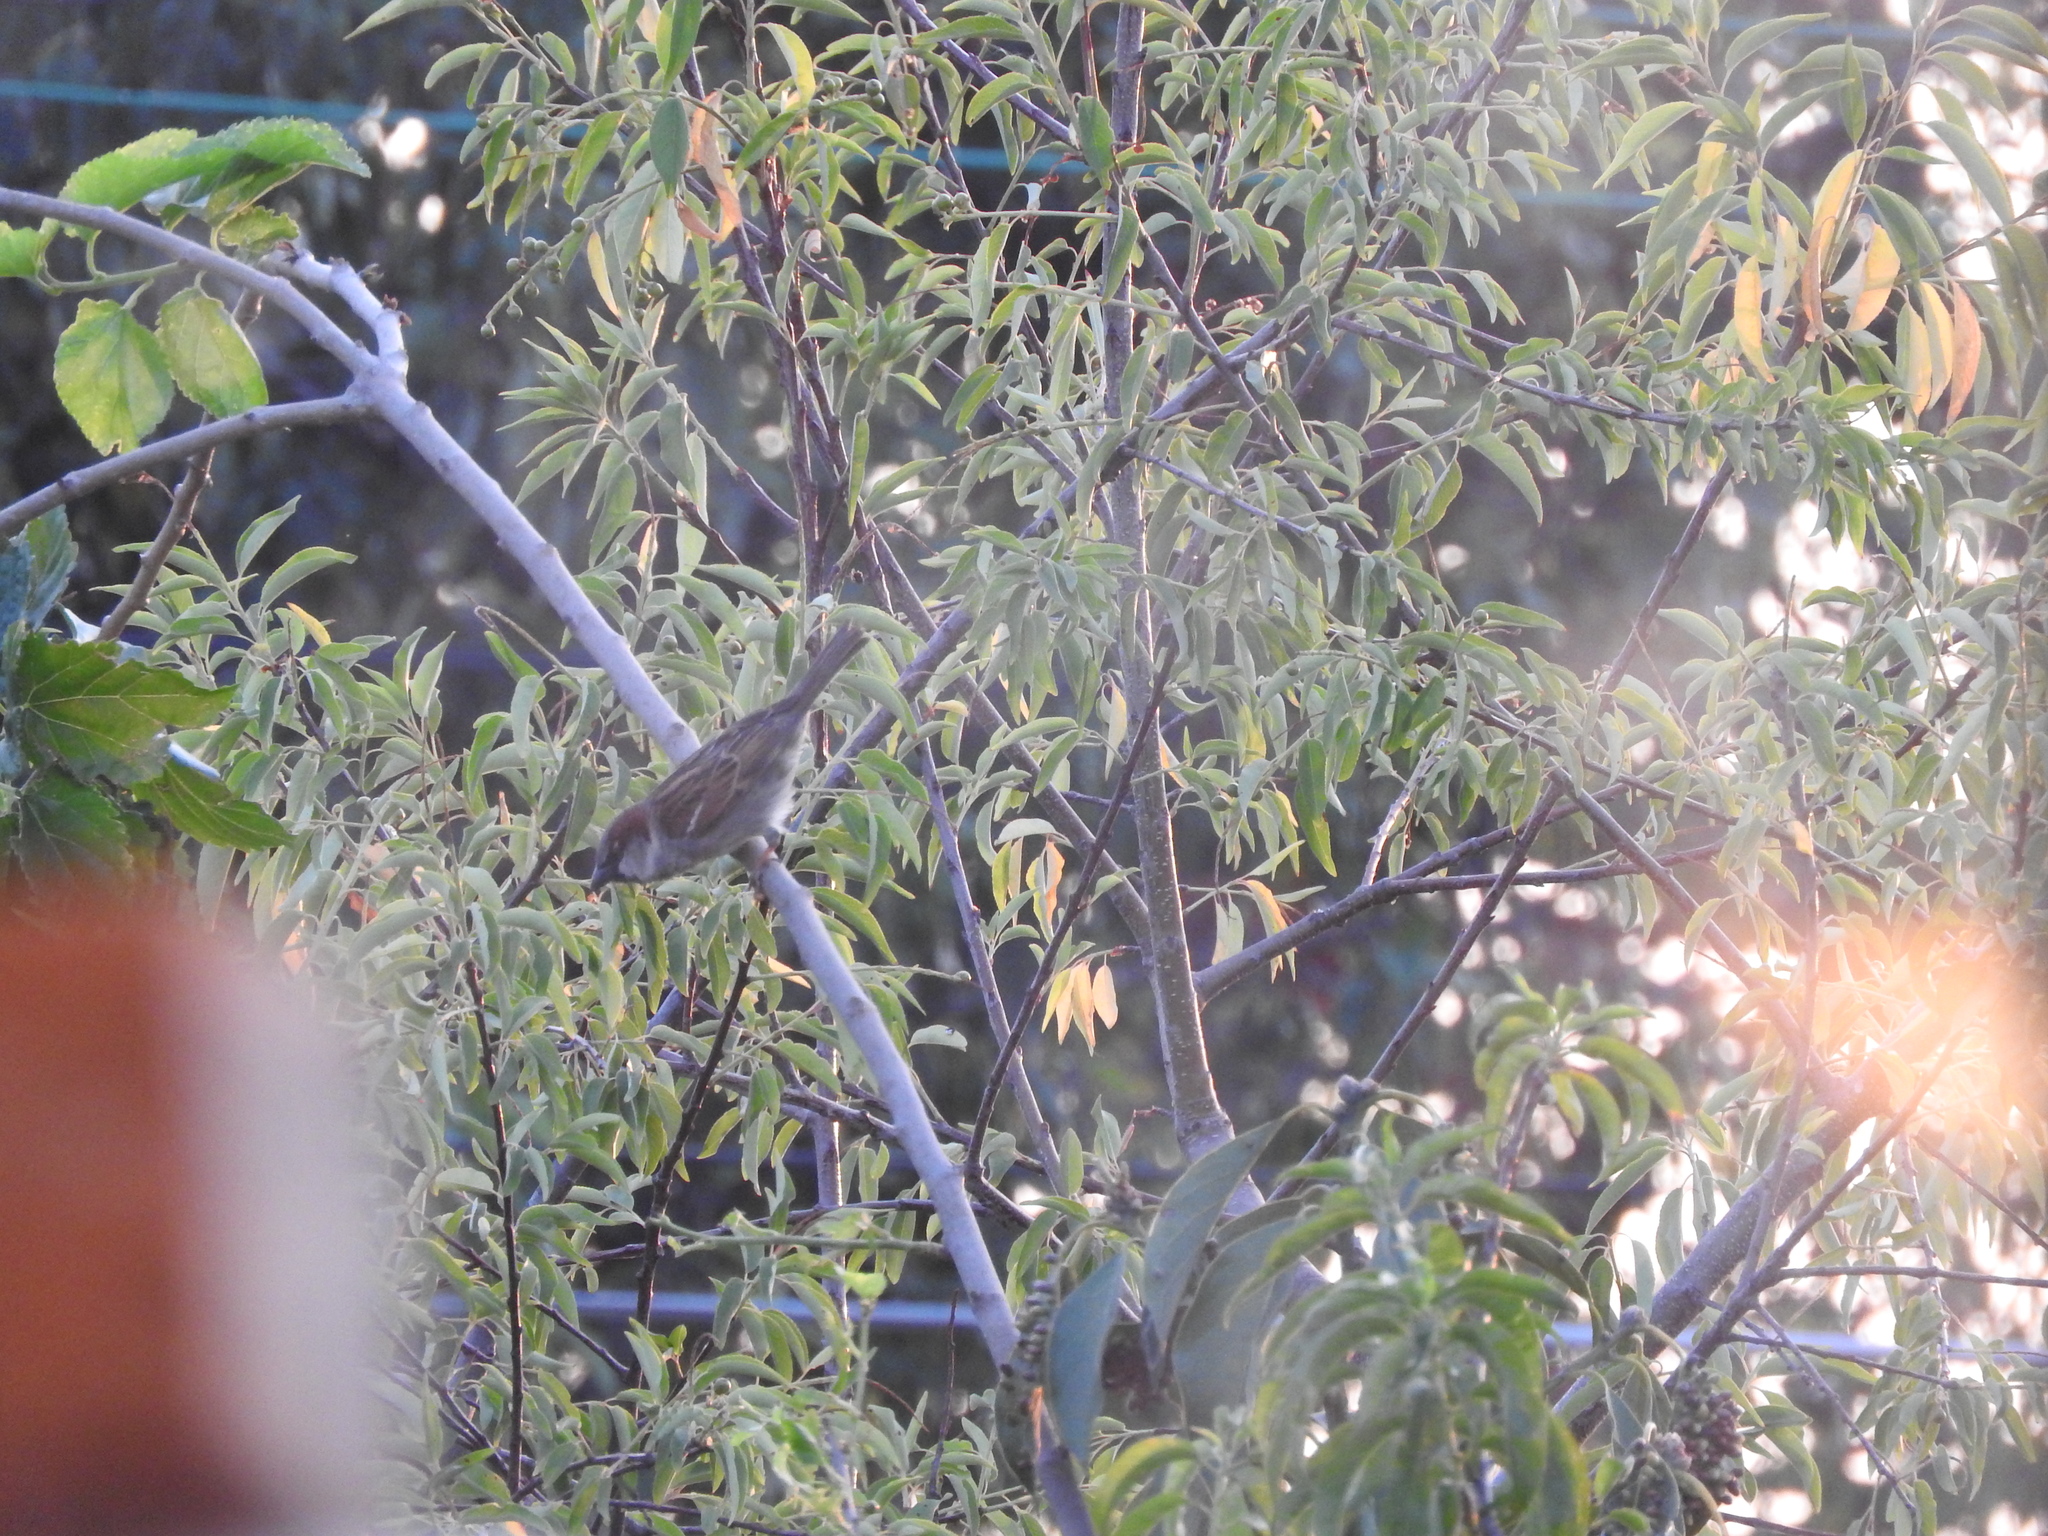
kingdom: Animalia
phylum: Chordata
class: Aves
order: Passeriformes
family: Passeridae
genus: Passer
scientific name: Passer domesticus
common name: House sparrow
